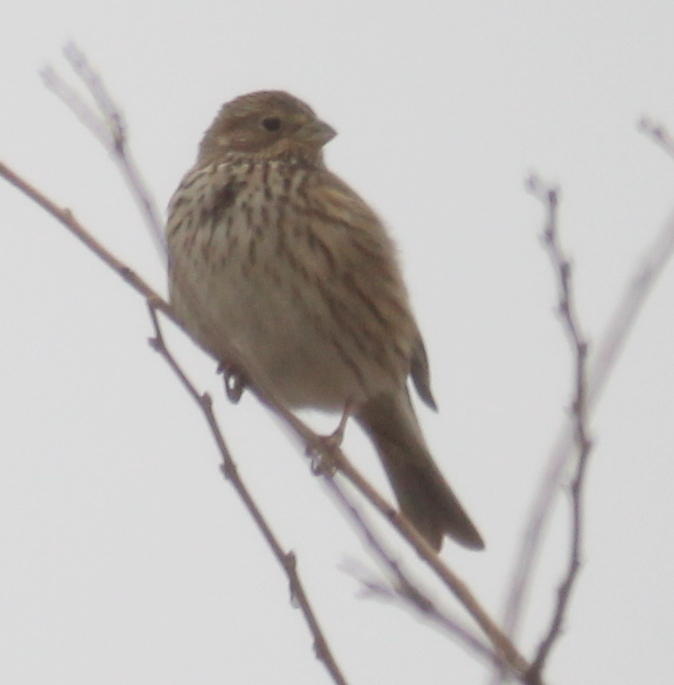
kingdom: Animalia
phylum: Chordata
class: Aves
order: Passeriformes
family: Emberizidae
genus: Emberiza
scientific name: Emberiza calandra
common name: Corn bunting
